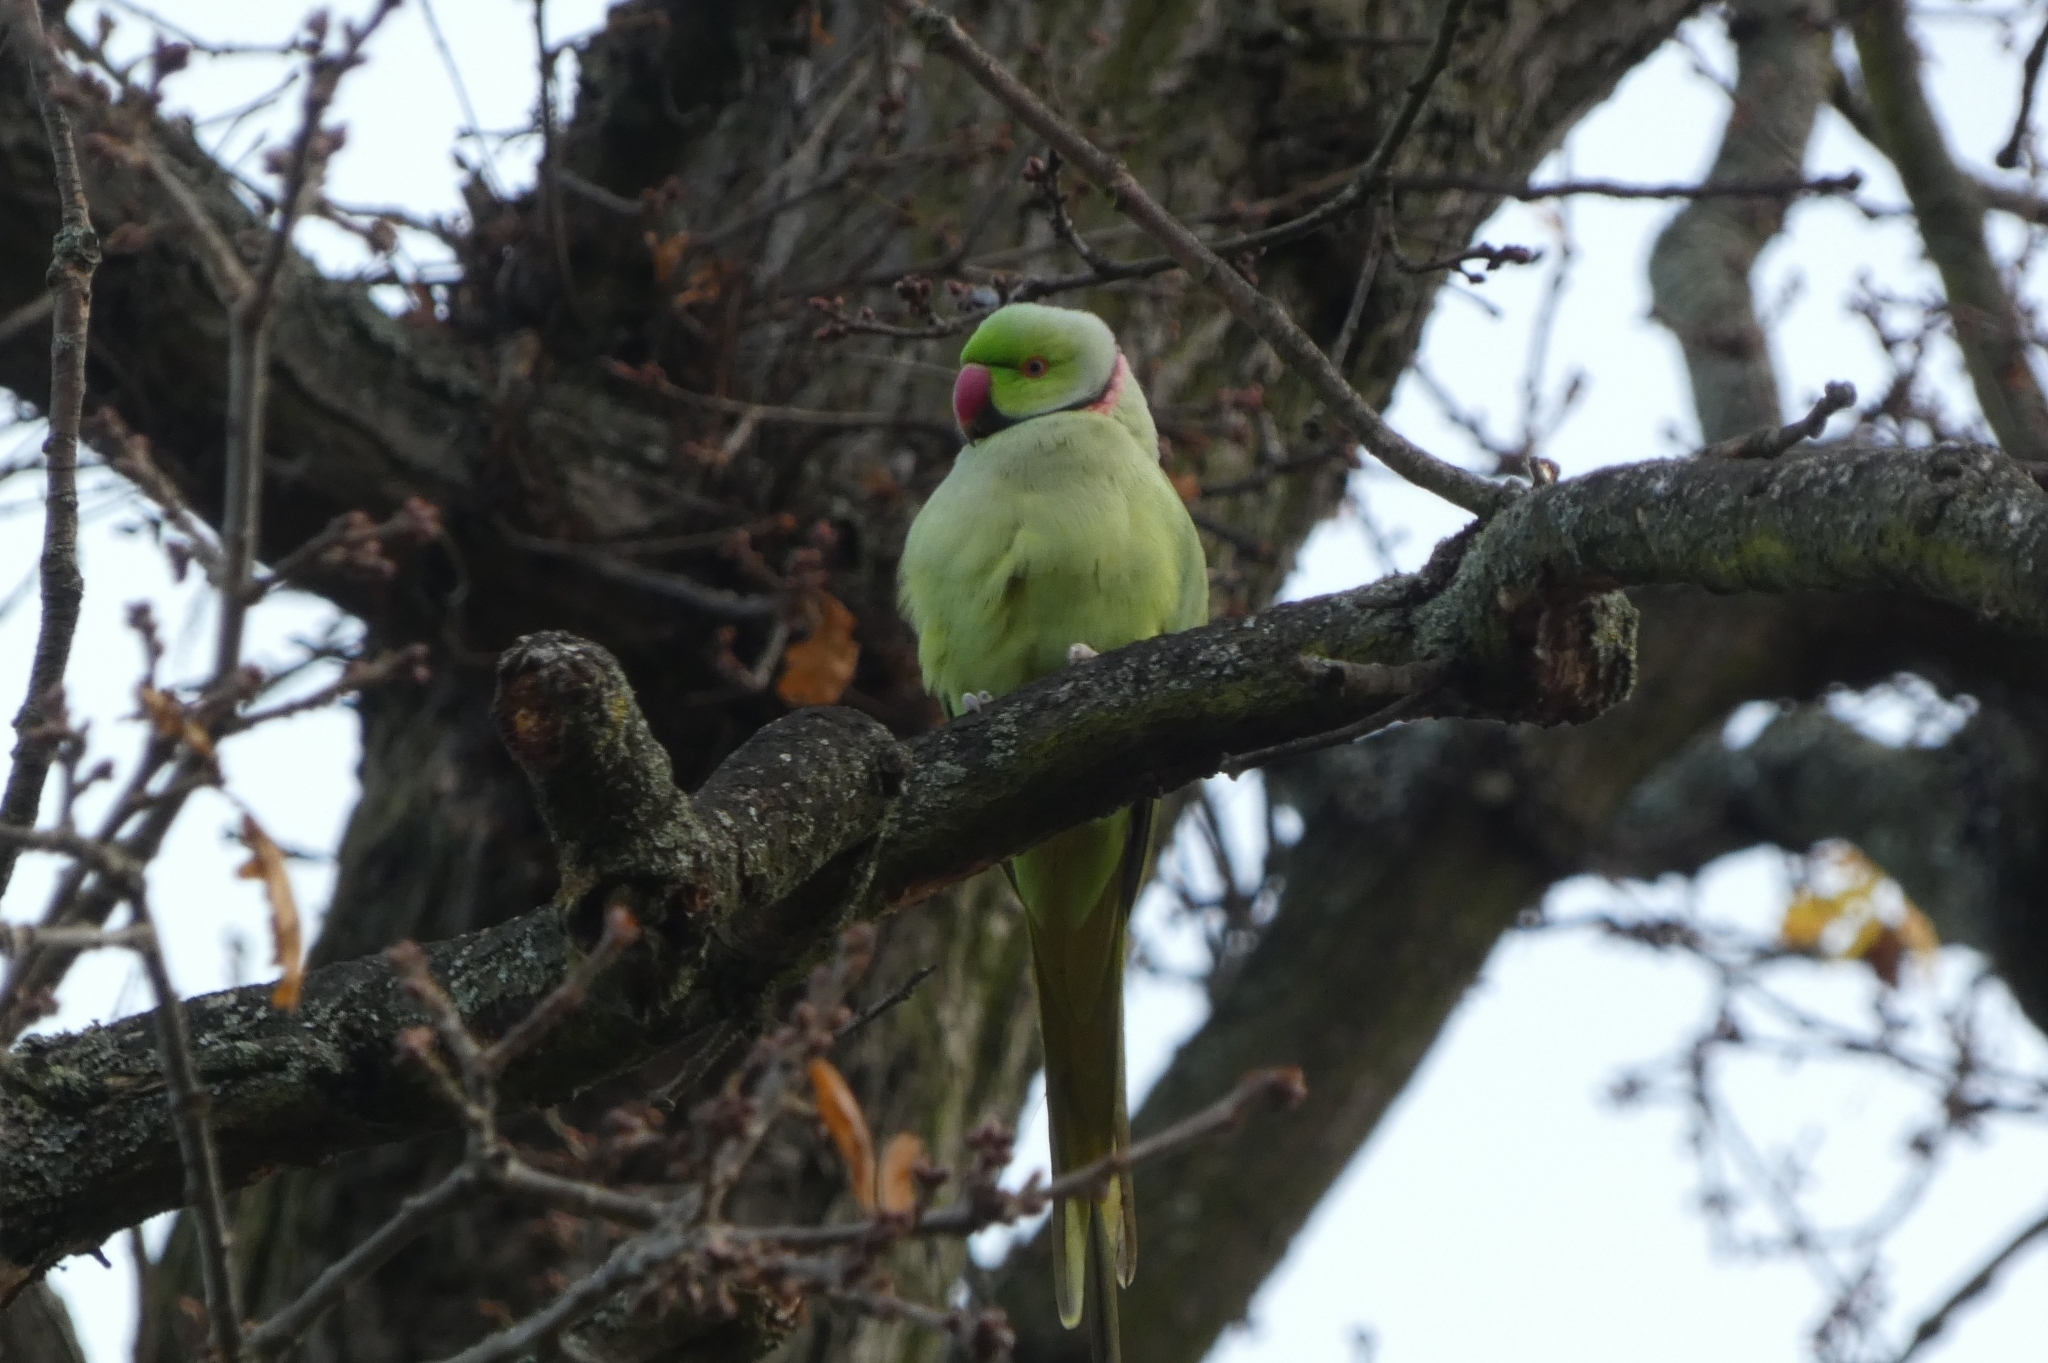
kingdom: Animalia
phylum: Chordata
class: Aves
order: Psittaciformes
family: Psittacidae
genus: Psittacula
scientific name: Psittacula krameri
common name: Rose-ringed parakeet
